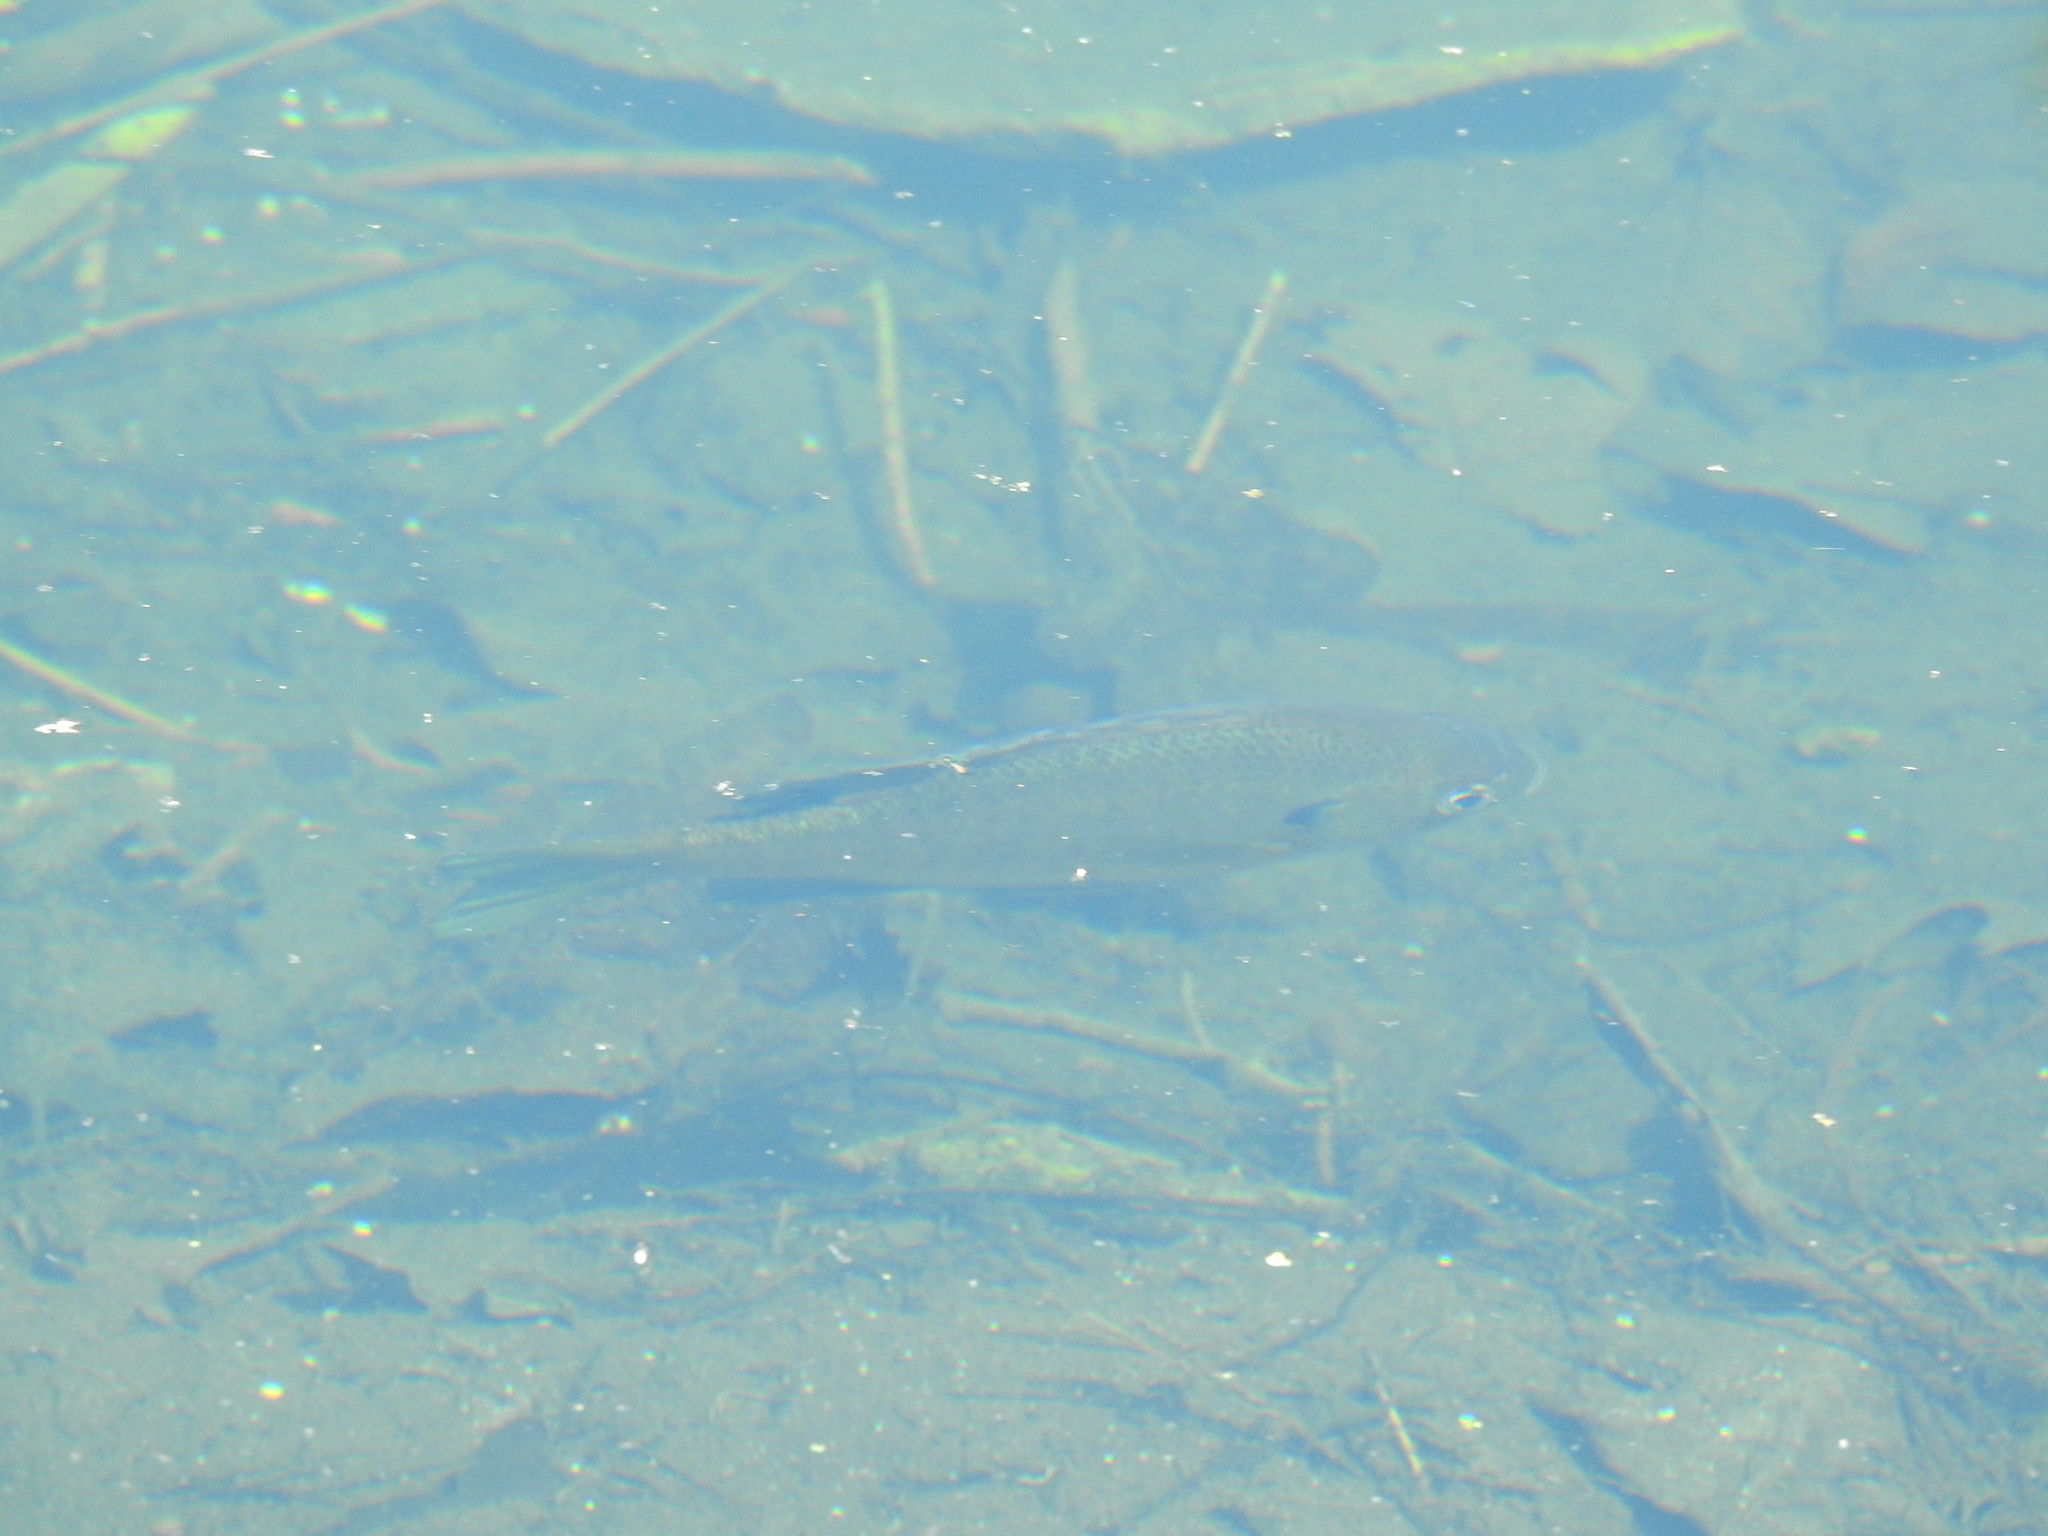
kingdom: Animalia
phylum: Chordata
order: Perciformes
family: Centrarchidae
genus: Lepomis
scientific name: Lepomis macrochirus
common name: Bluegill
